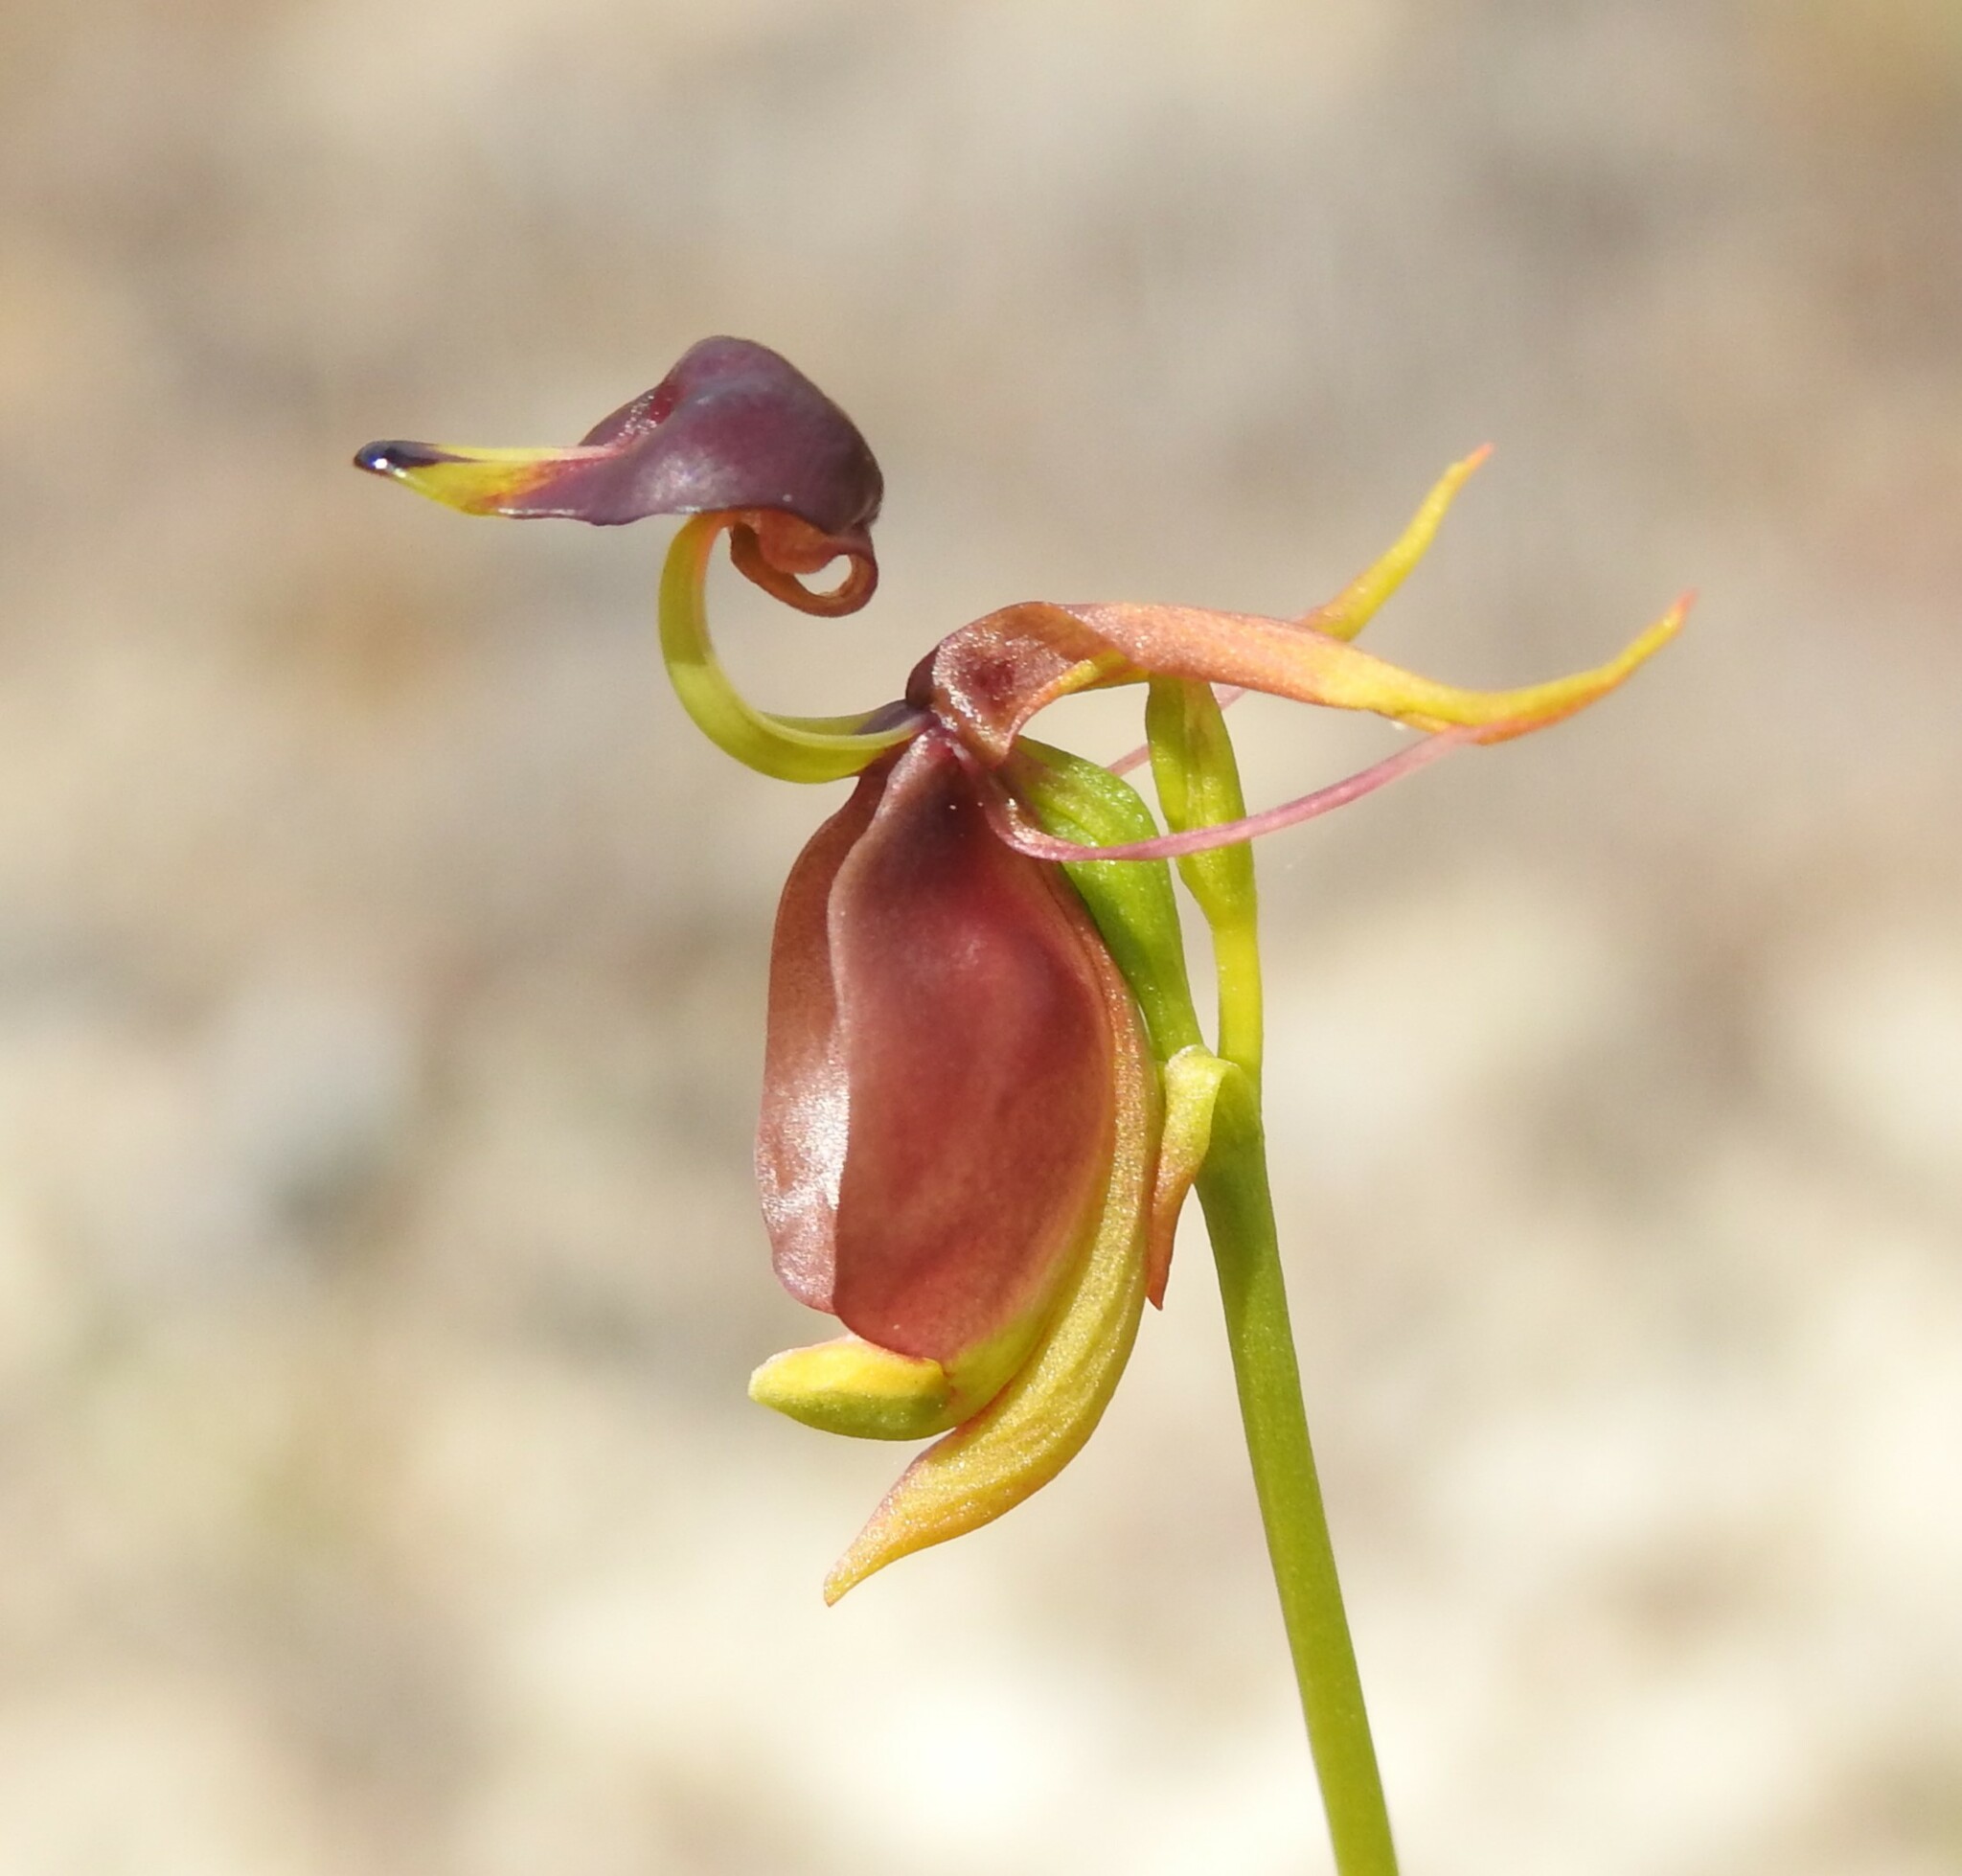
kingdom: Plantae
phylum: Tracheophyta
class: Liliopsida
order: Asparagales
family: Orchidaceae
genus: Caleana
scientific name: Caleana major
